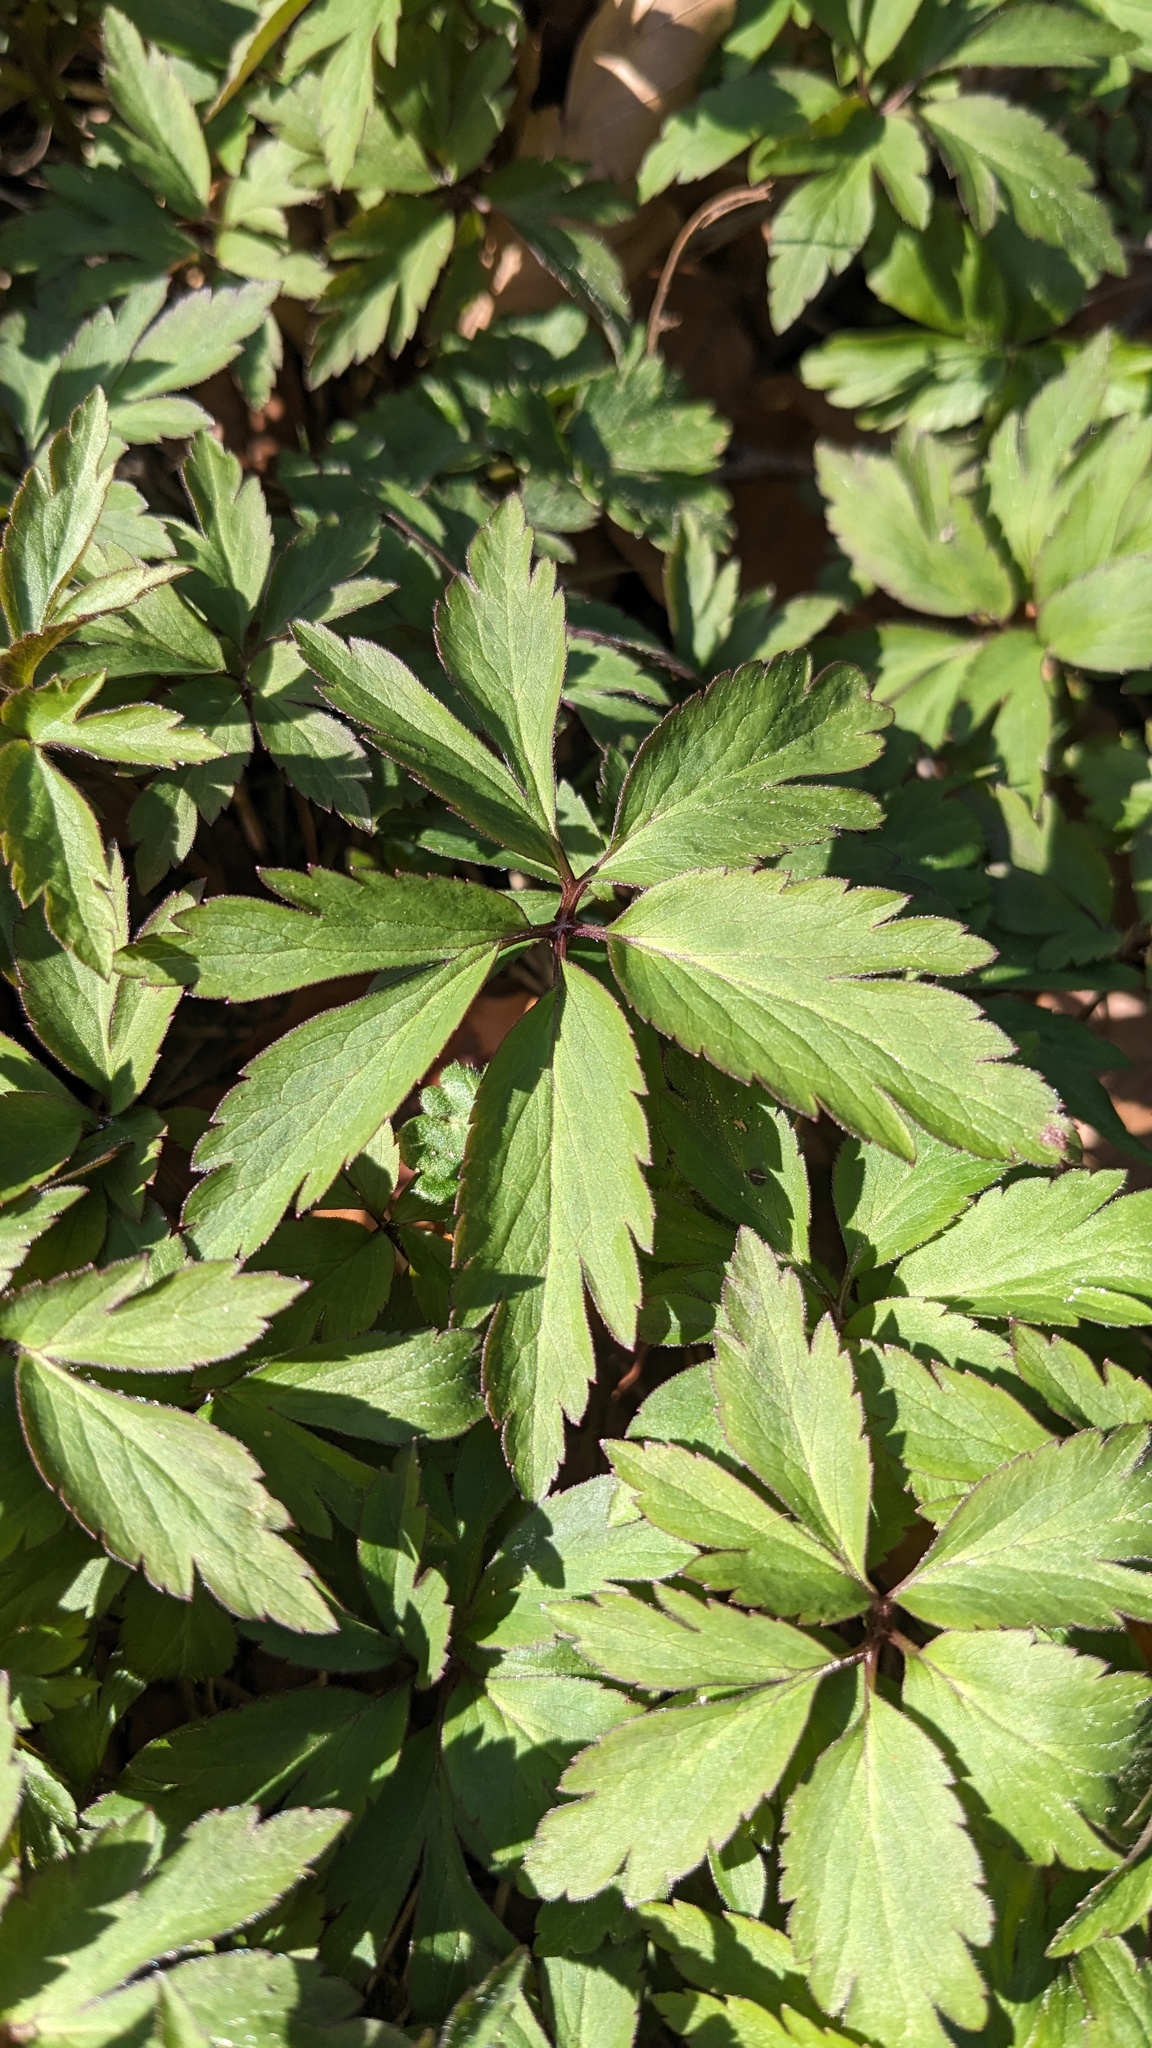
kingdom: Plantae
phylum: Tracheophyta
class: Magnoliopsida
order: Ranunculales
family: Ranunculaceae
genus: Anemone
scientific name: Anemone nemorosa
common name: Wood anemone
